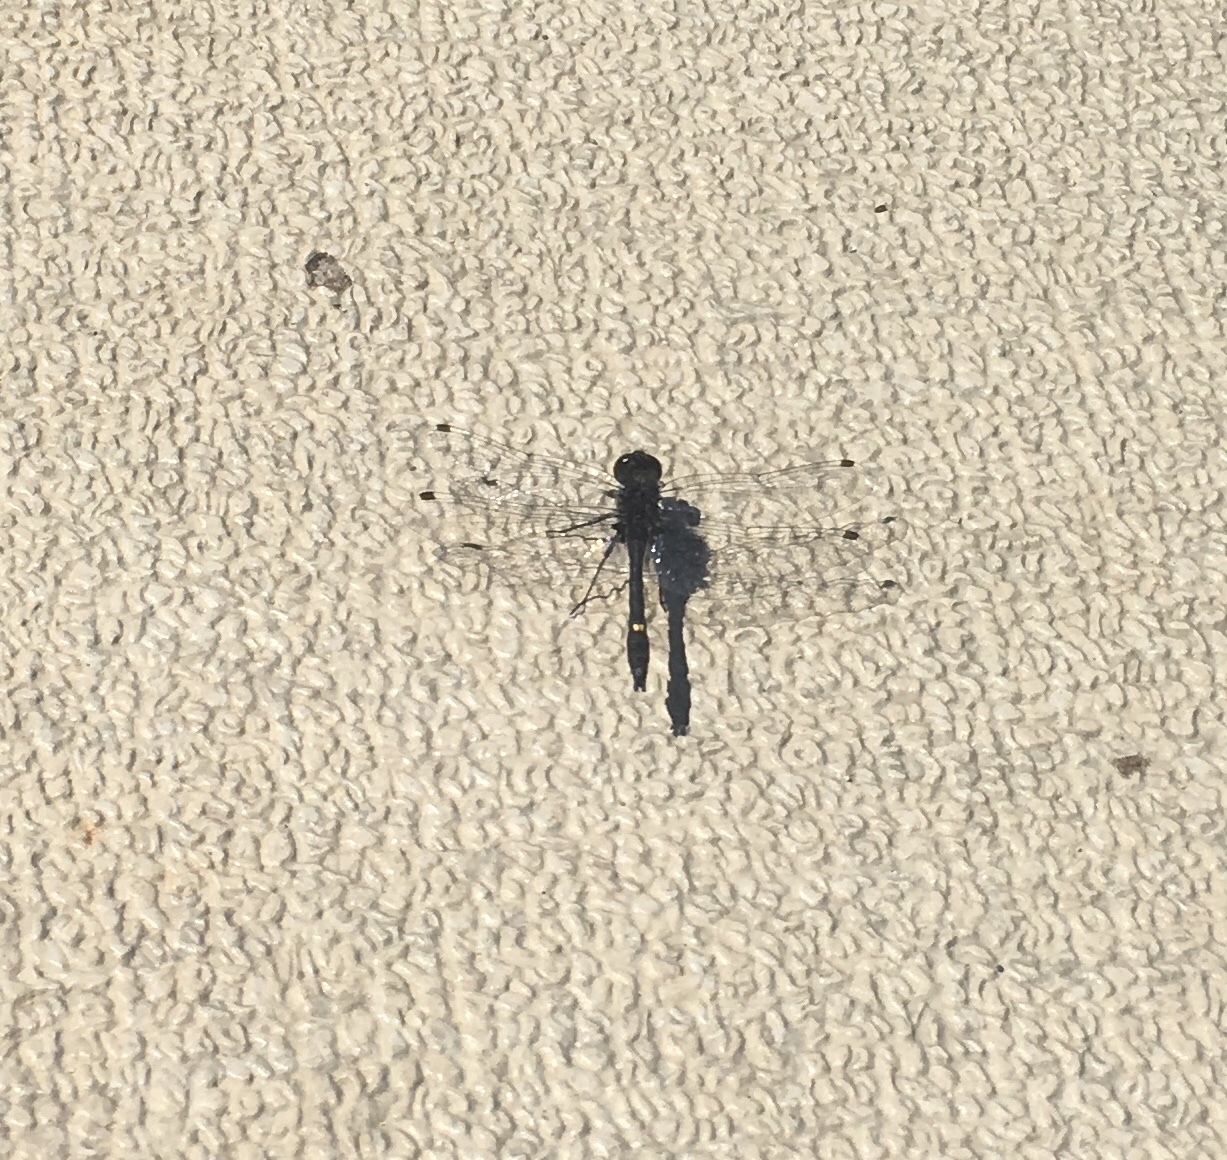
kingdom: Animalia
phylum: Arthropoda
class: Insecta
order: Odonata
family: Libellulidae
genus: Leucorrhinia
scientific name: Leucorrhinia intacta
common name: Dot-tailed whiteface
